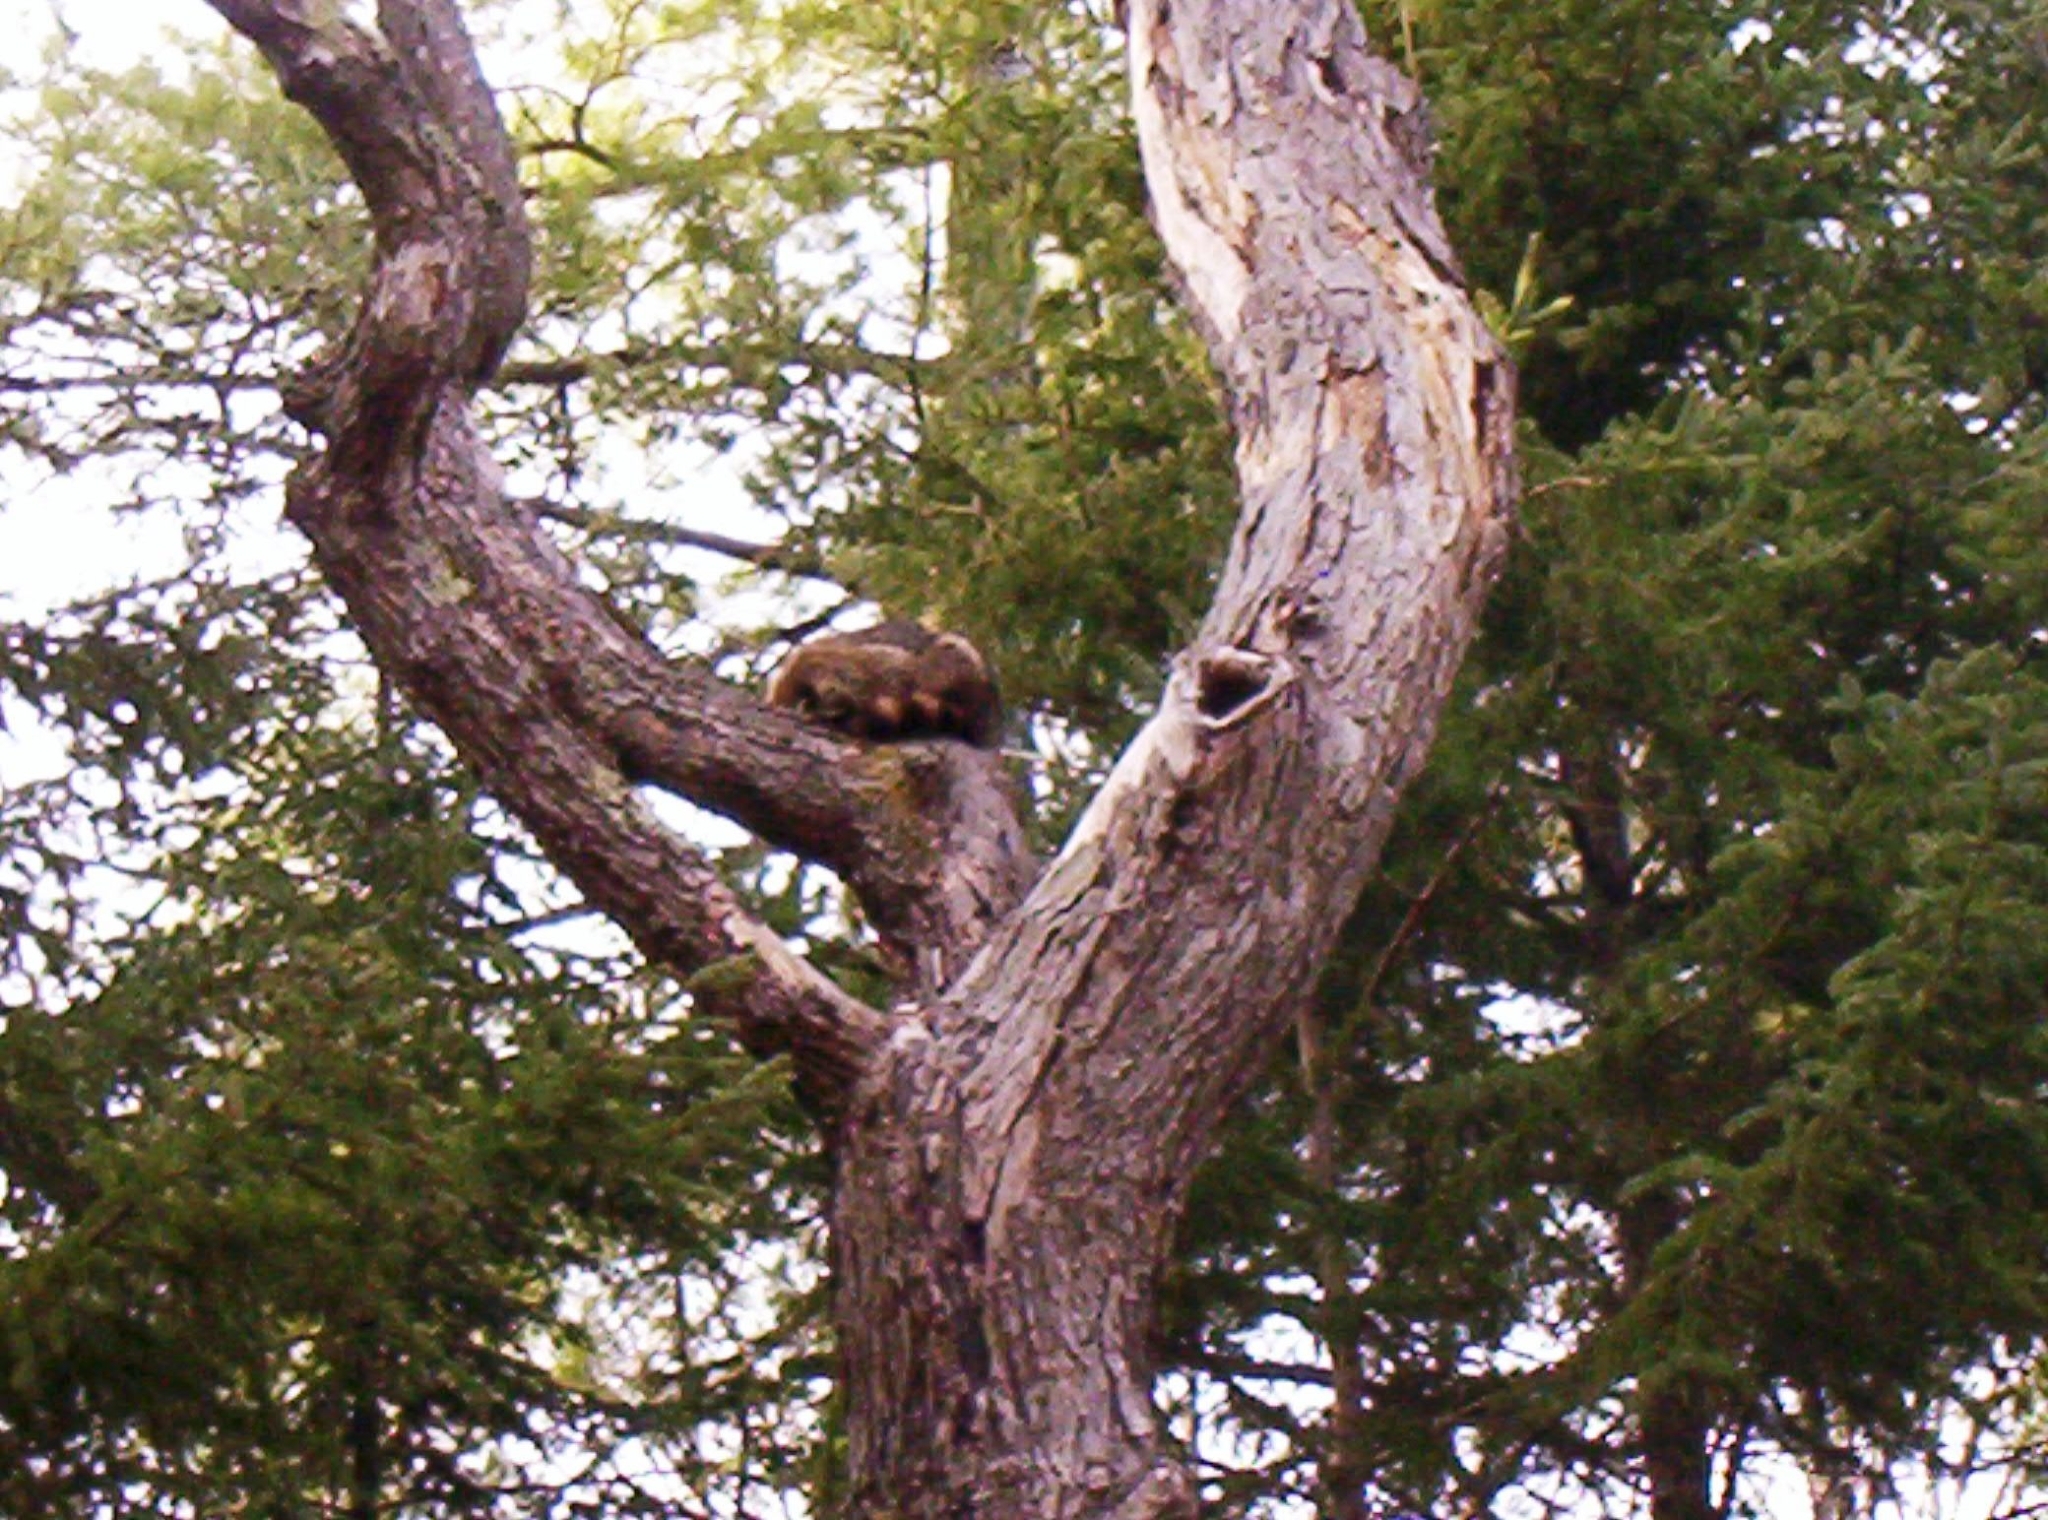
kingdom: Animalia
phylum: Chordata
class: Mammalia
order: Carnivora
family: Procyonidae
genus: Procyon
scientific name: Procyon lotor
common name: Raccoon
